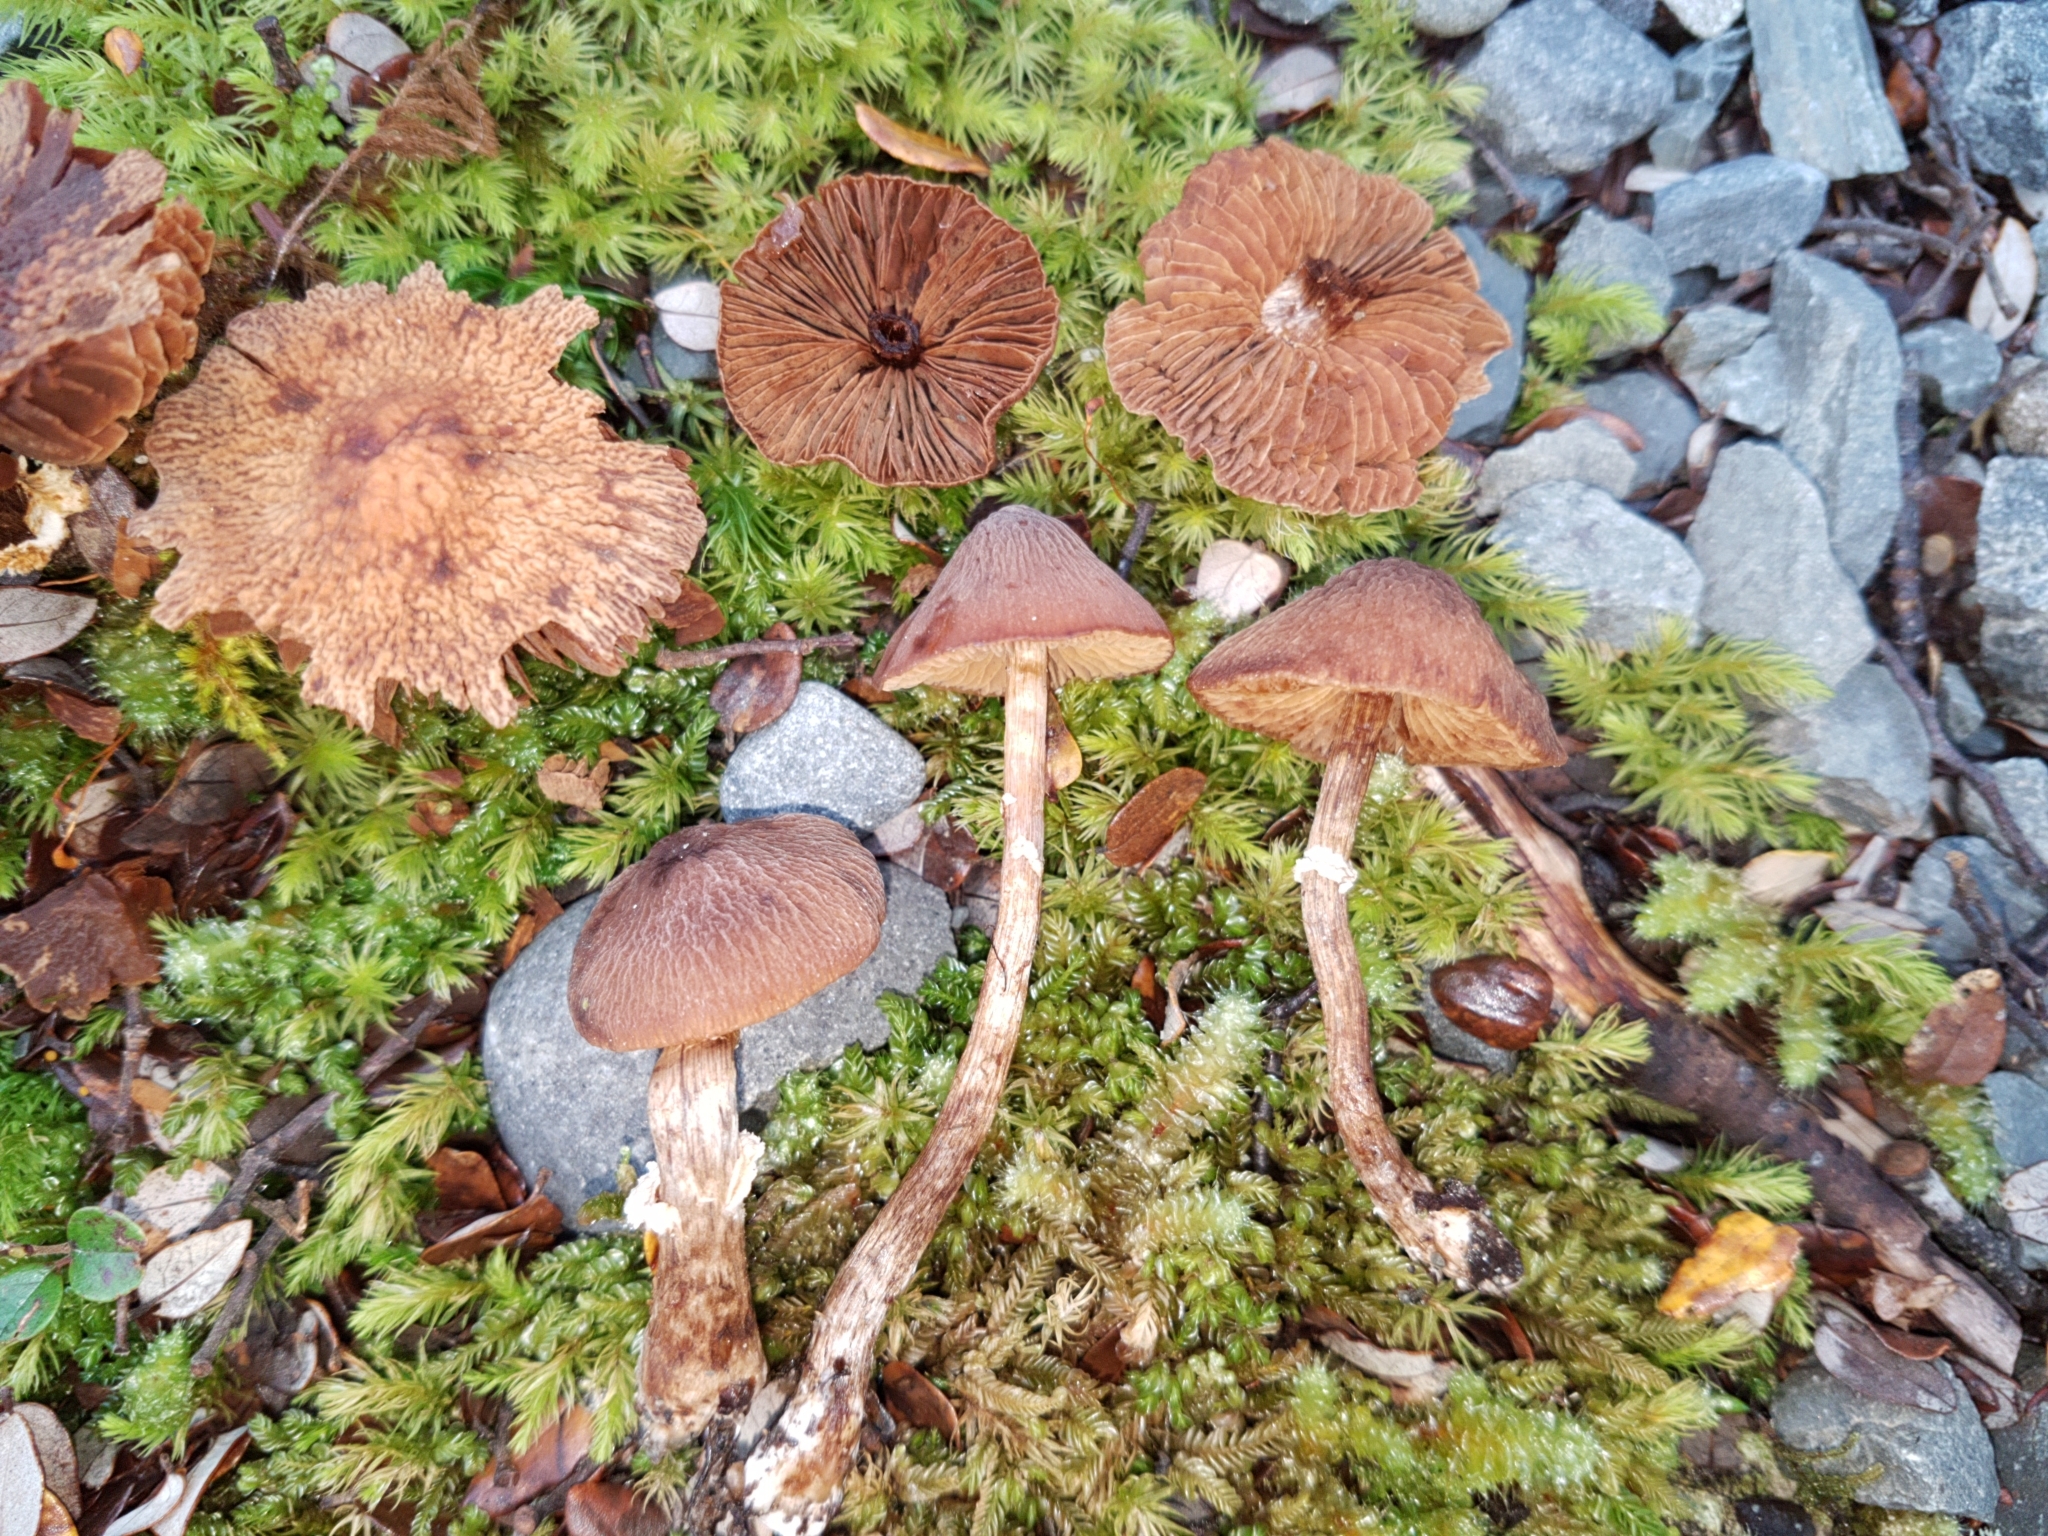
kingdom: Fungi
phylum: Basidiomycota
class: Agaricomycetes
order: Agaricales
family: Bolbitiaceae
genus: Descolea
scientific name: Descolea phlebophora
